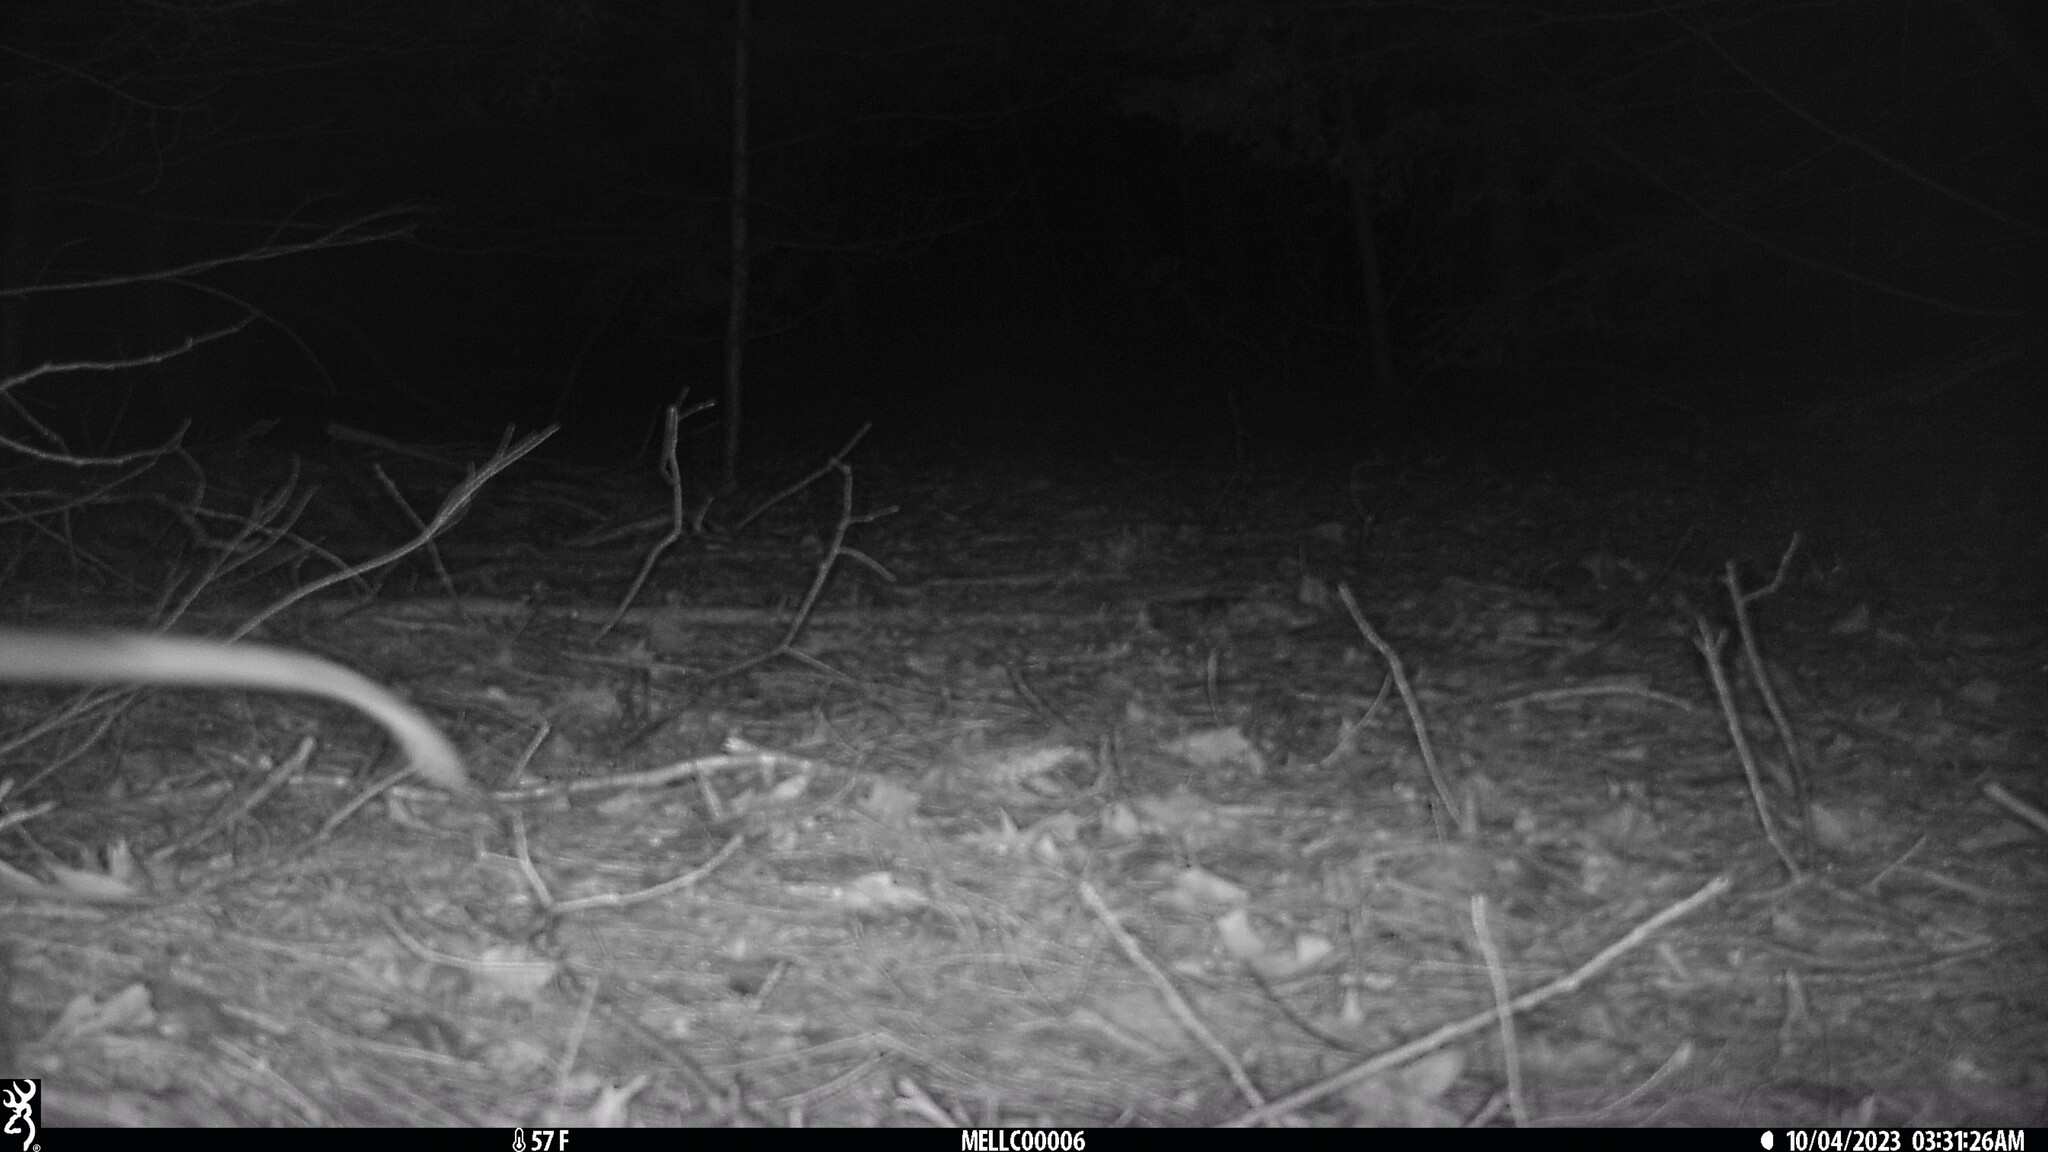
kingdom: Animalia
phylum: Chordata
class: Mammalia
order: Didelphimorphia
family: Didelphidae
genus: Didelphis
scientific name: Didelphis virginiana
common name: Virginia opossum
